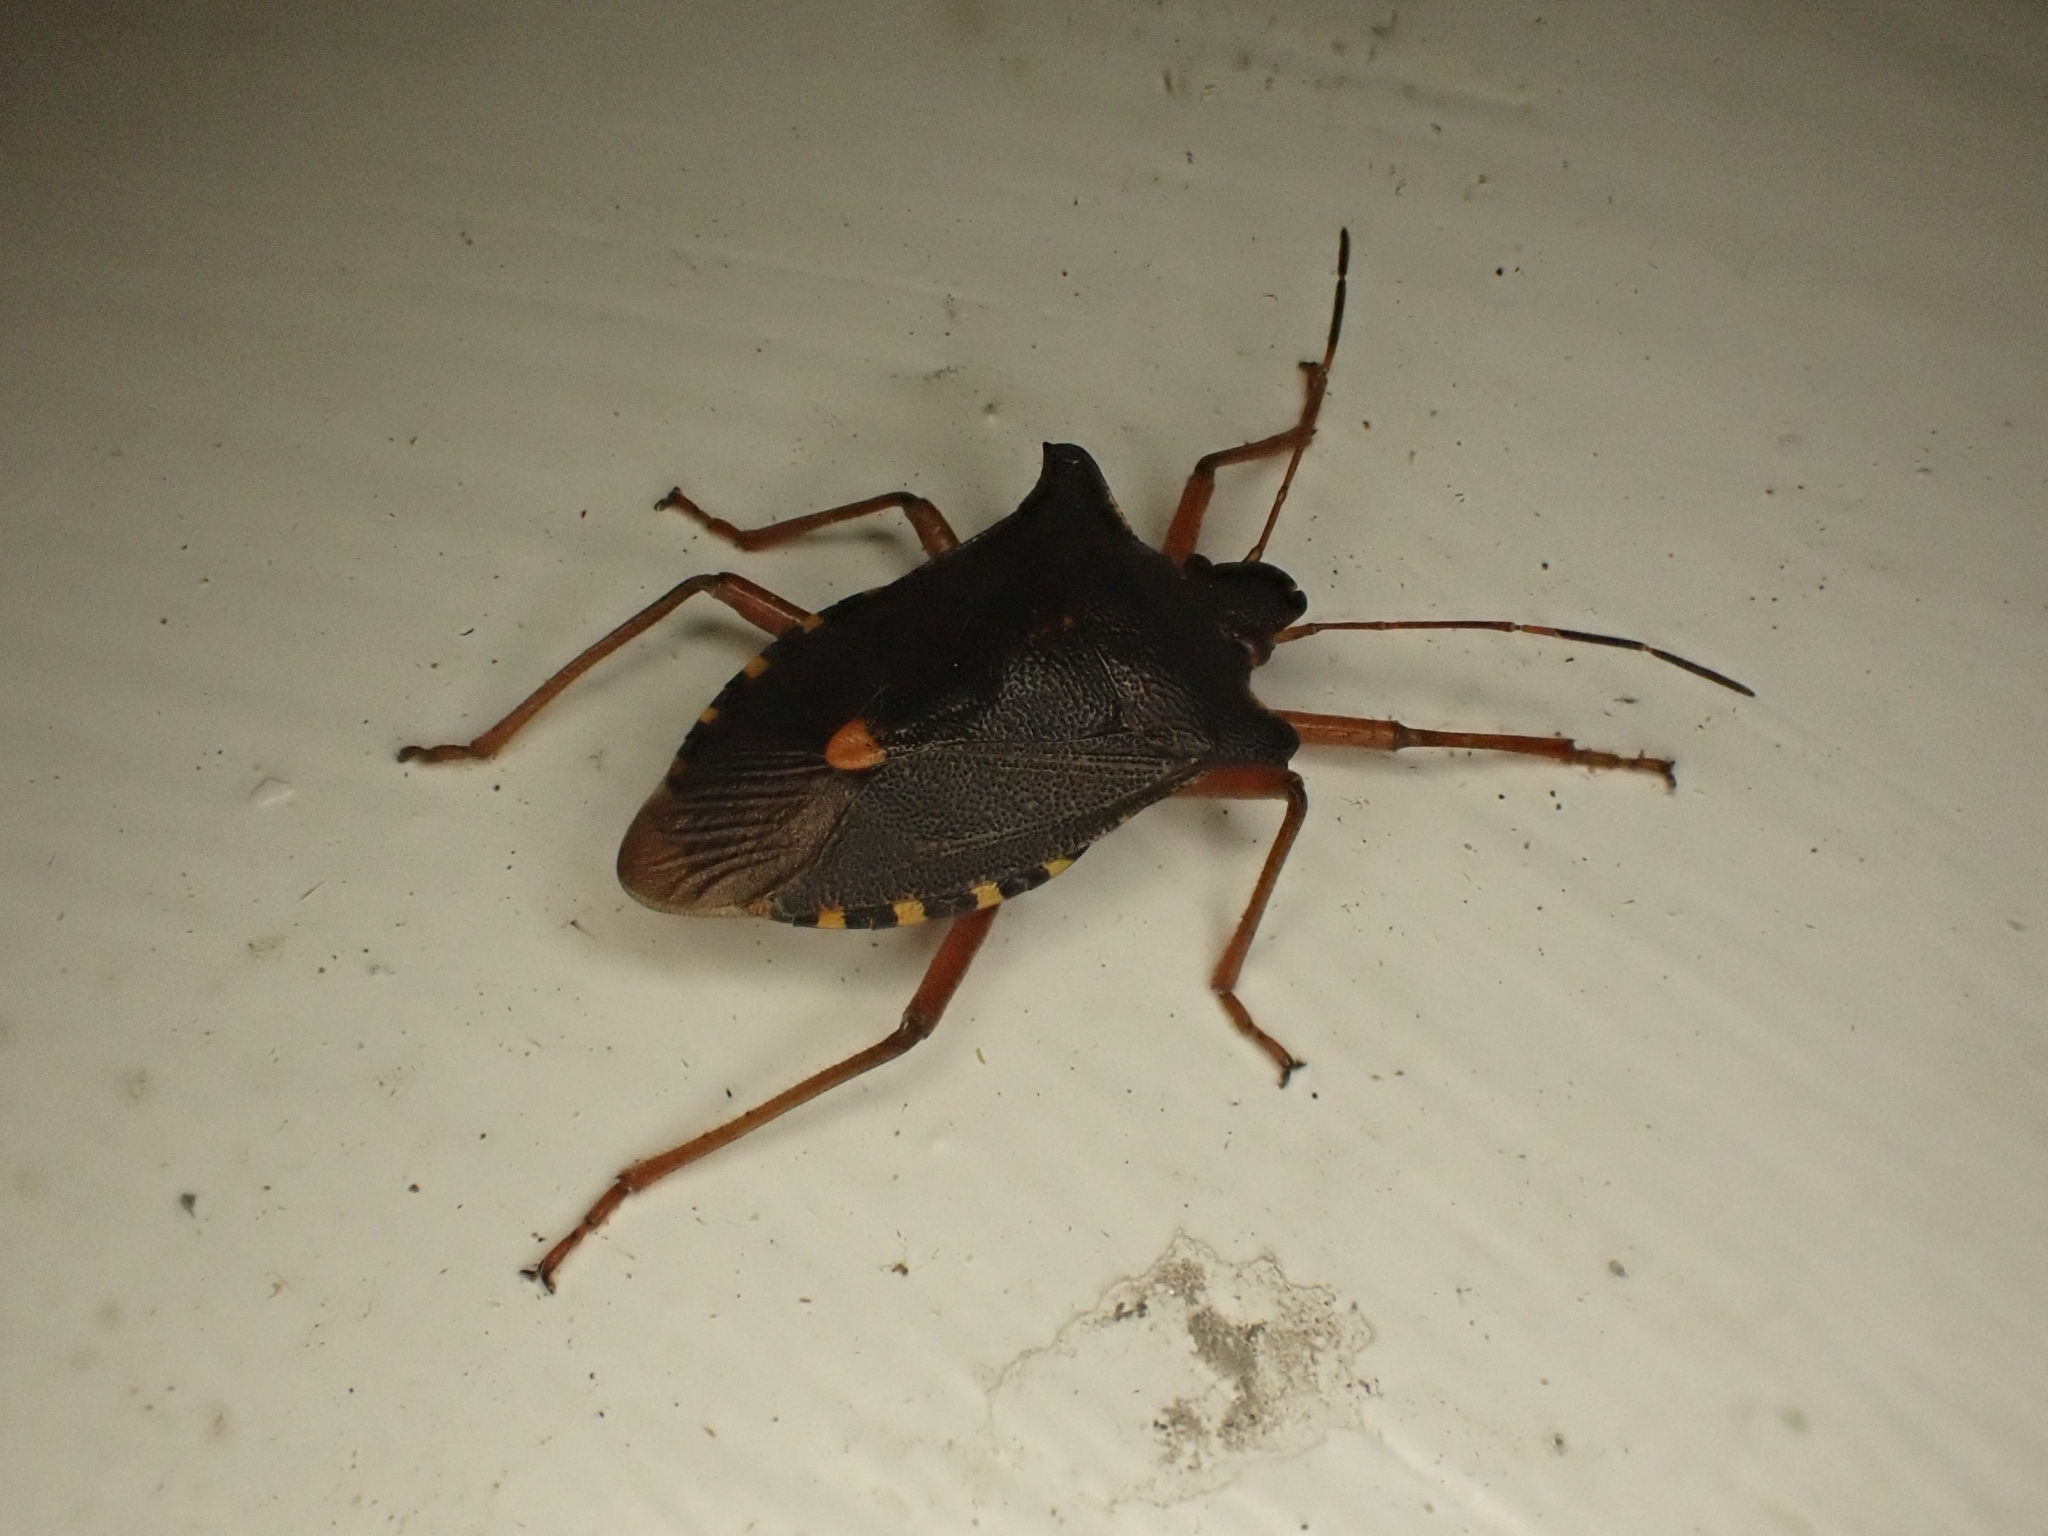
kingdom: Animalia
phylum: Arthropoda
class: Insecta
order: Hemiptera
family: Pentatomidae
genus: Pentatoma
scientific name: Pentatoma rufipes
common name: Forest bug
